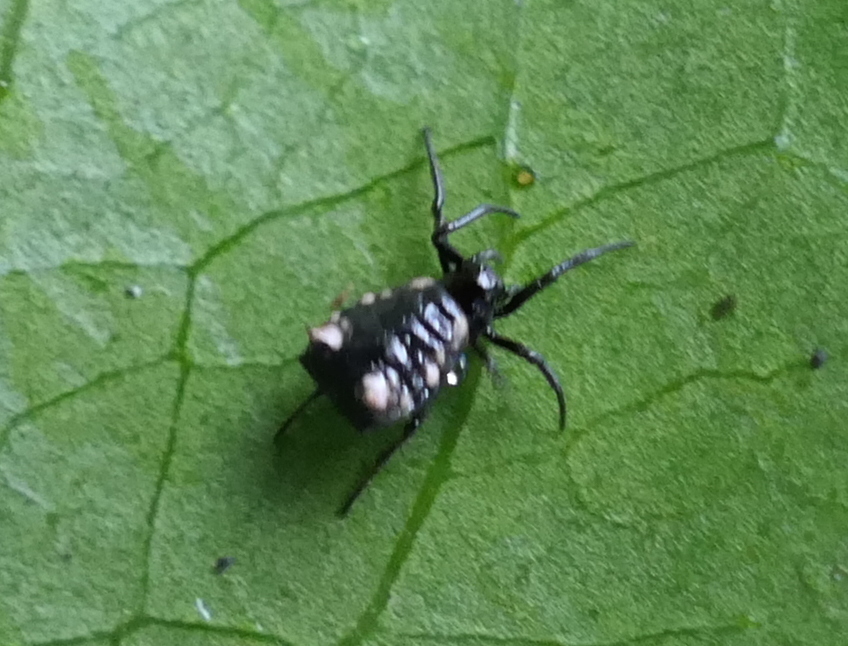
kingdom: Animalia
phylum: Arthropoda
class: Arachnida
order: Araneae
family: Araneidae
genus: Micrathena
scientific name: Micrathena patruelis
